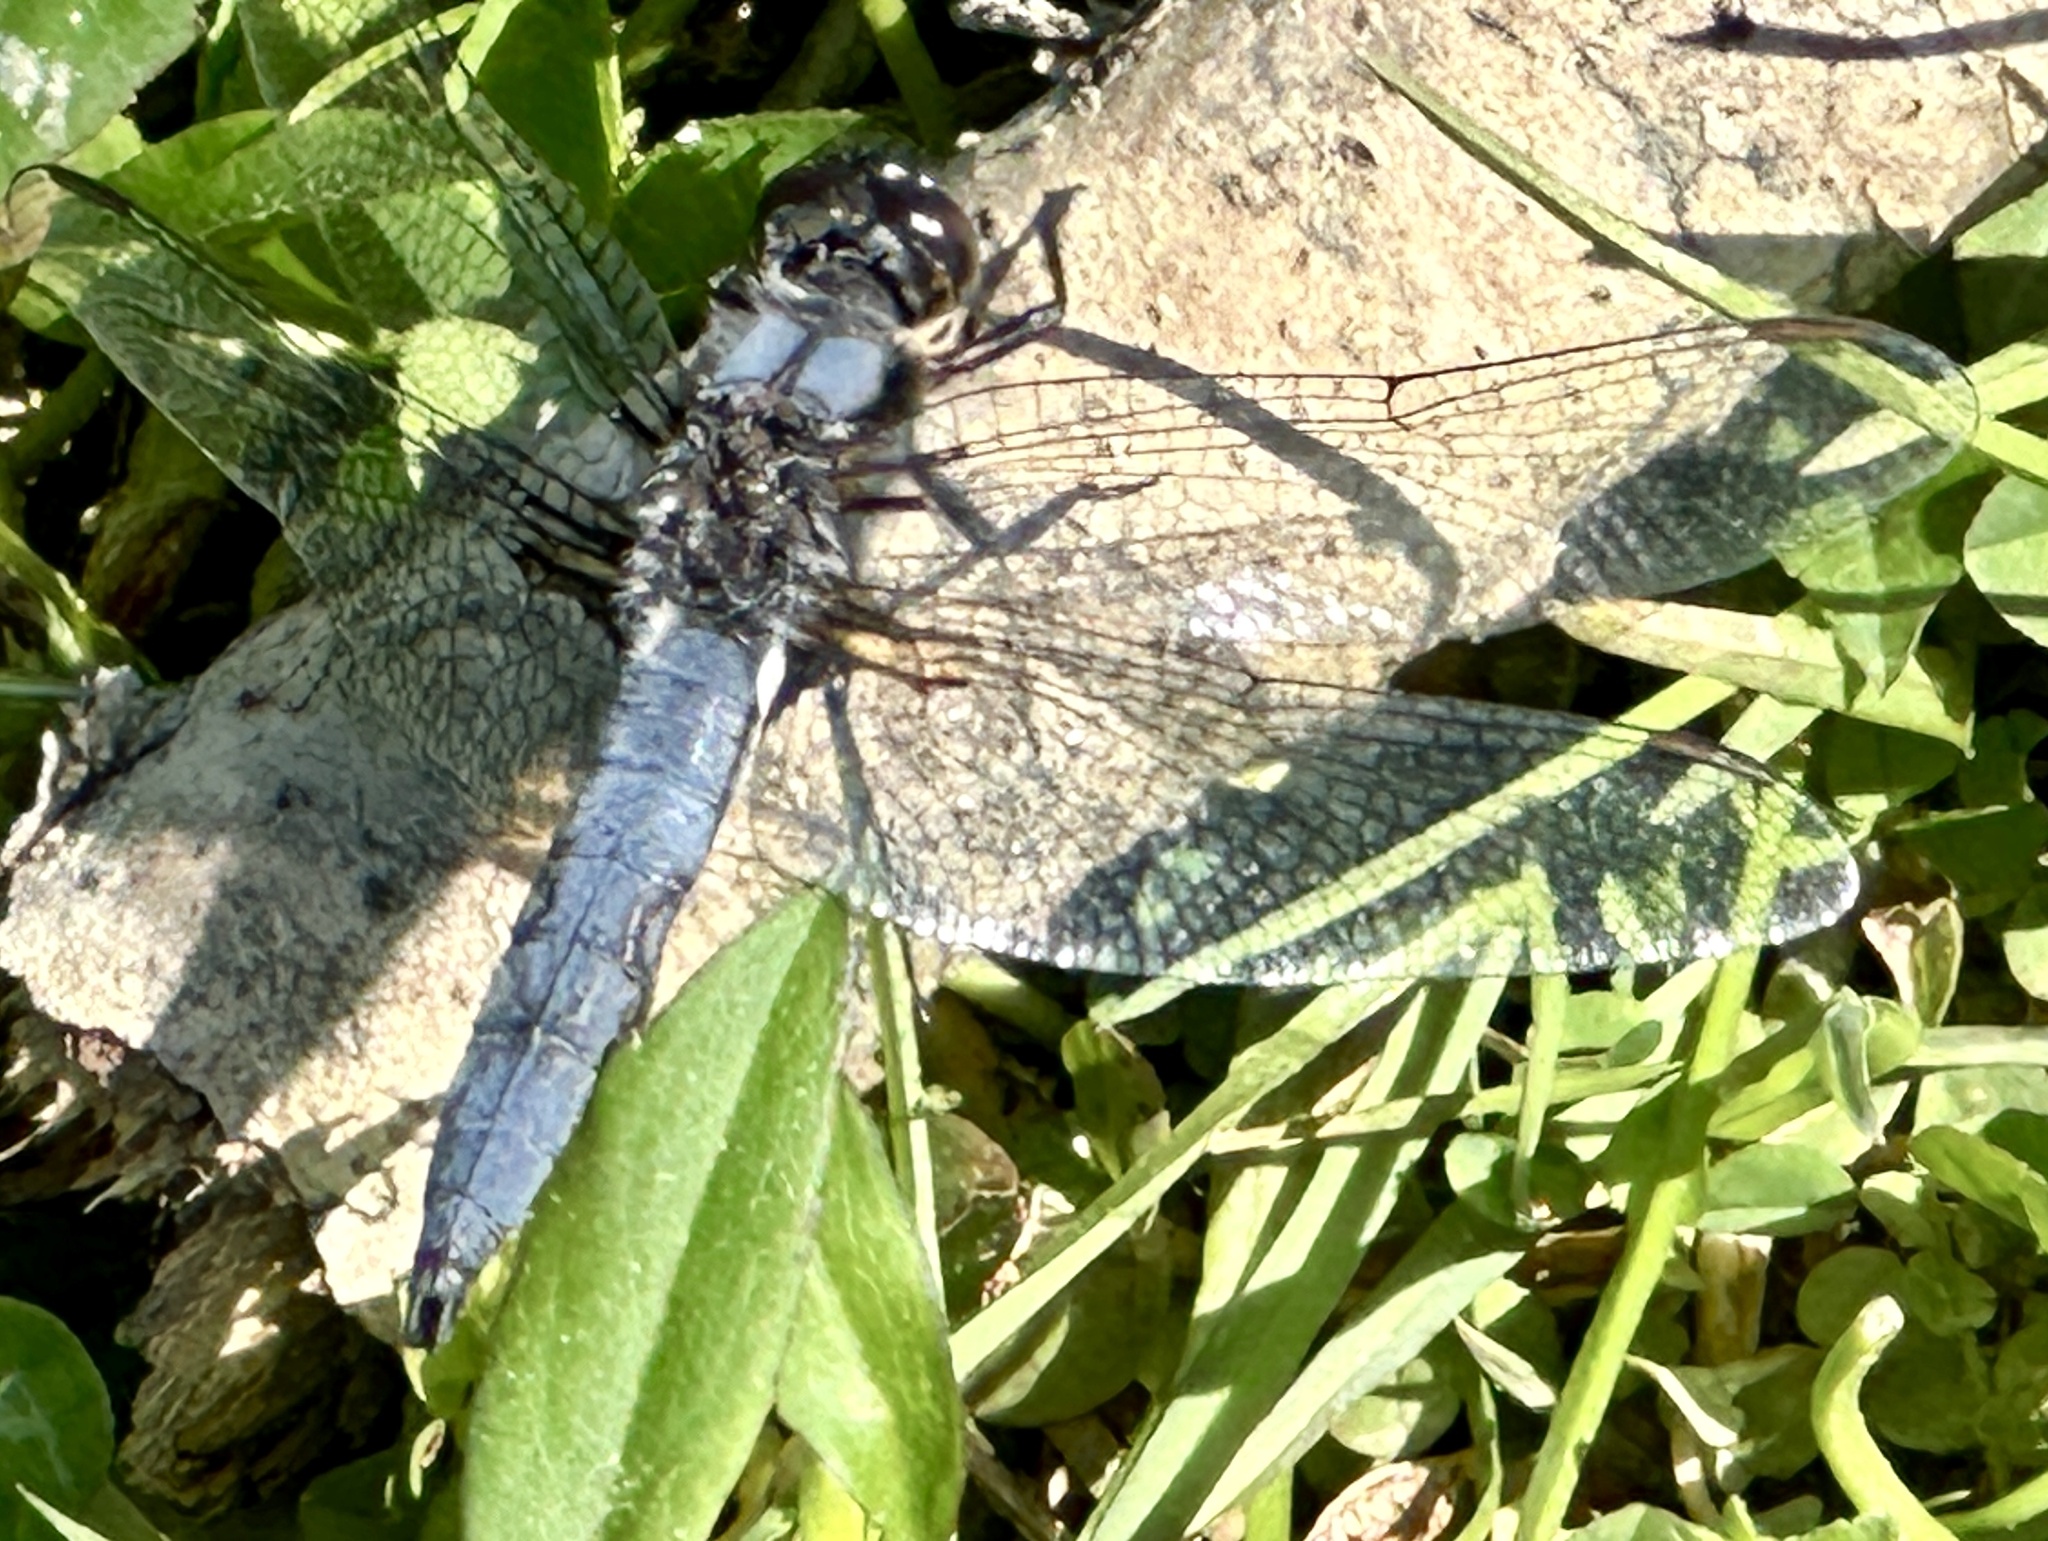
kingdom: Animalia
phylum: Arthropoda
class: Insecta
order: Odonata
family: Libellulidae
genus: Ladona
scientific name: Ladona deplanata
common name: Blue corporal
